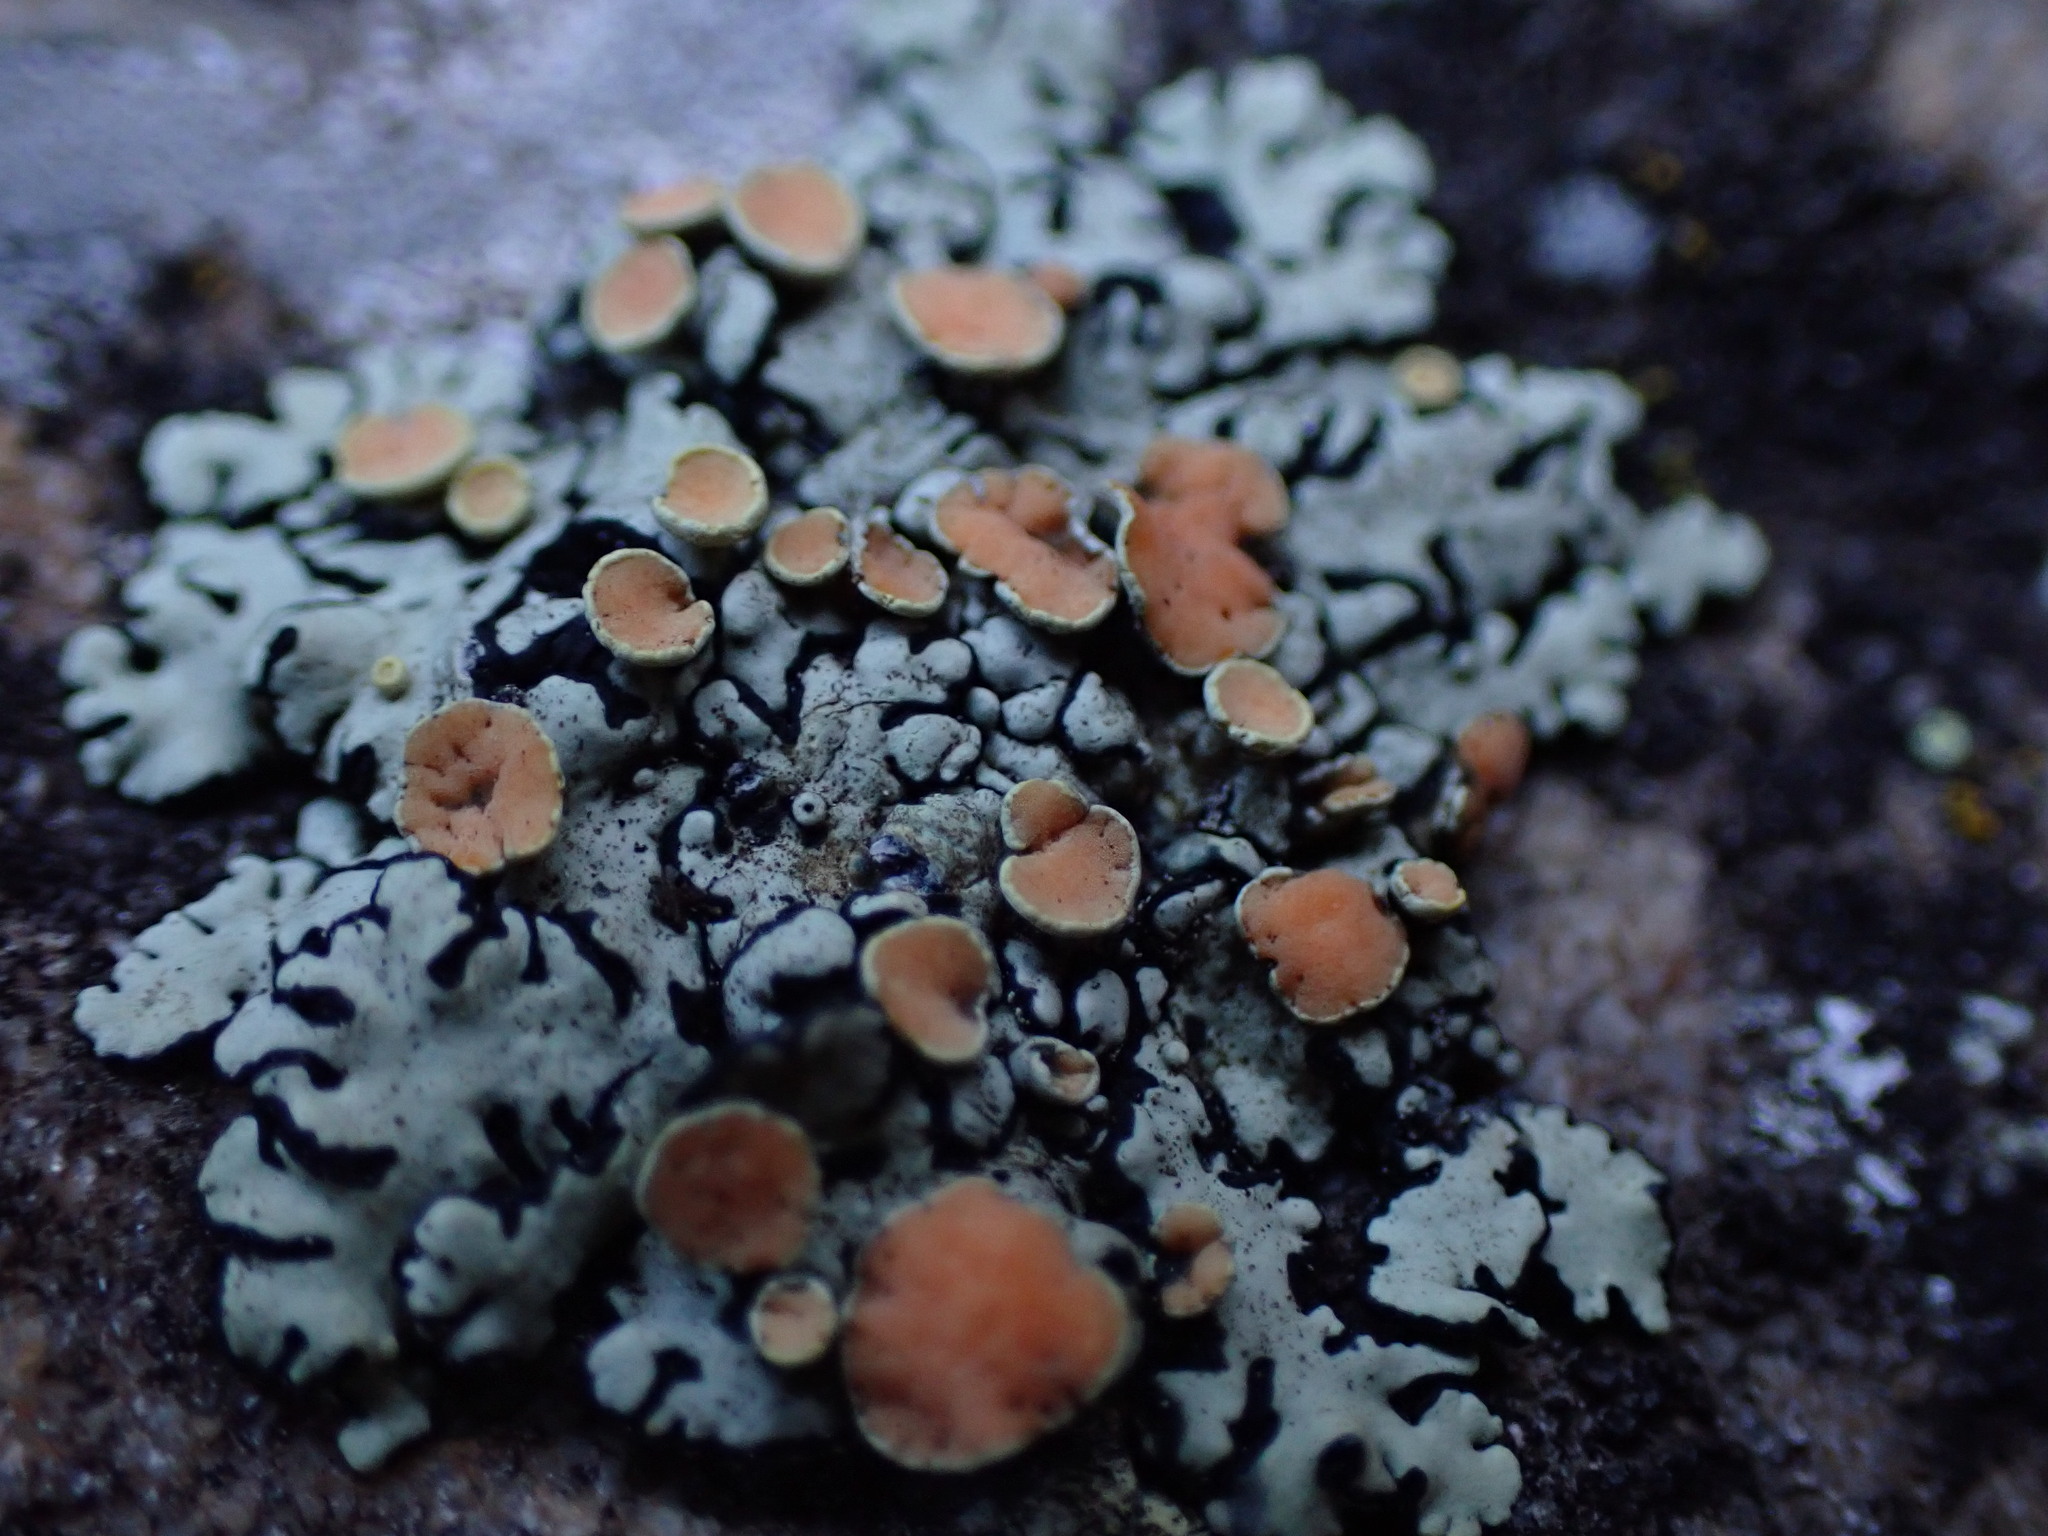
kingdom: Fungi
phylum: Ascomycota
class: Lecanoromycetes
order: Lecanorales
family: Lecanoraceae
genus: Omphalodina
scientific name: Omphalodina chrysoleuca
